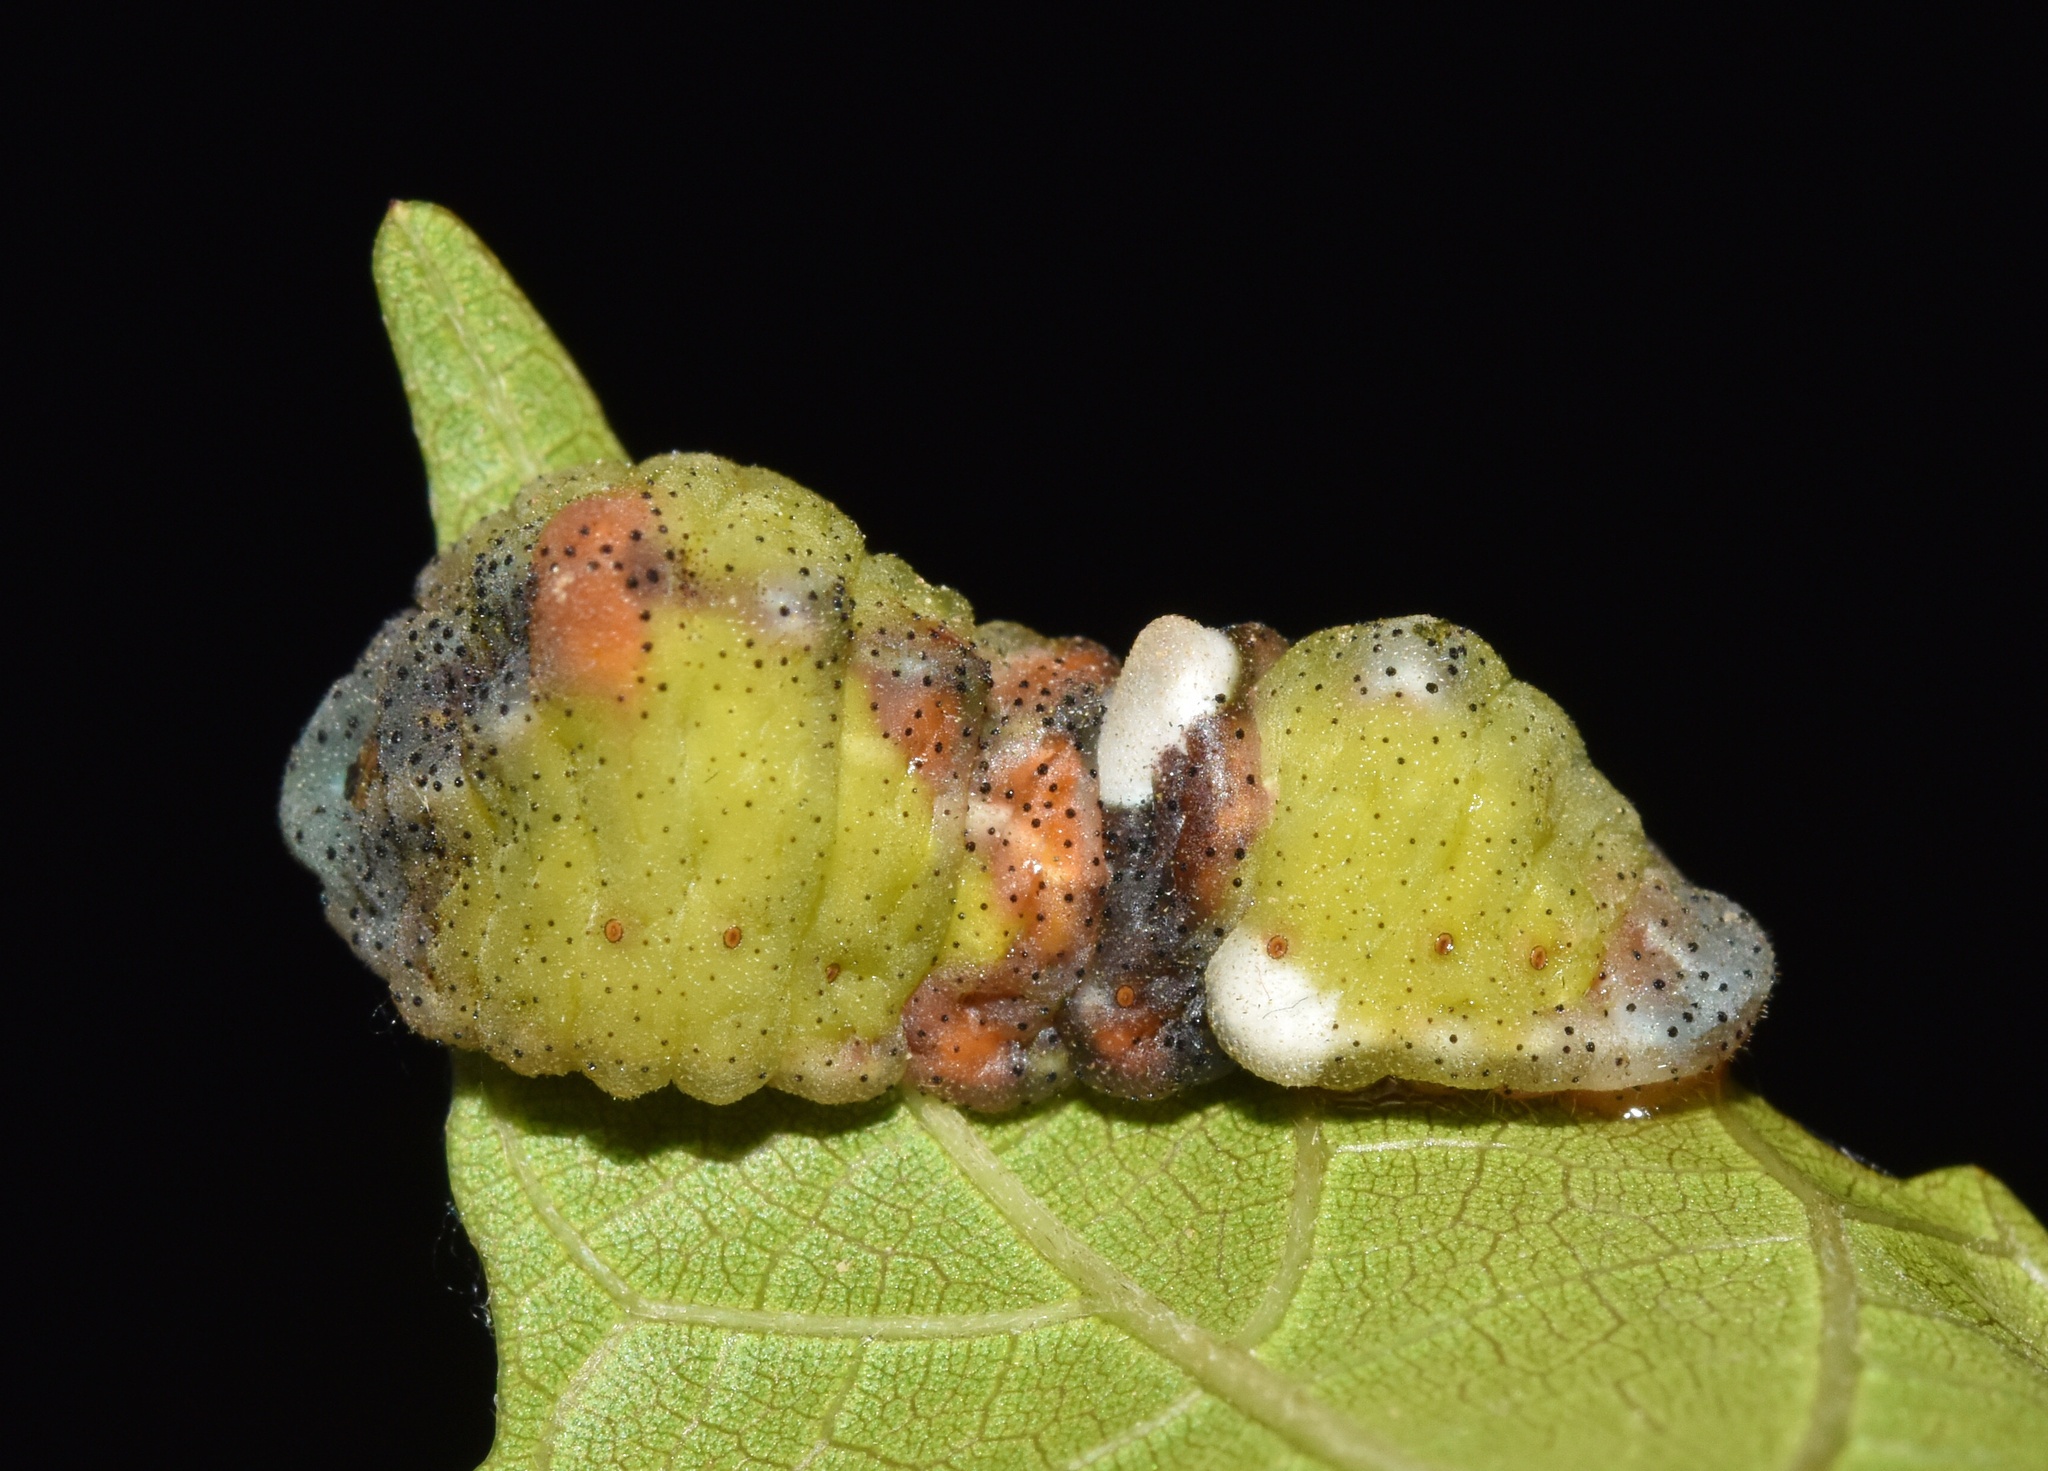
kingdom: Animalia
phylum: Arthropoda
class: Insecta
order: Lepidoptera
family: Lycaenidae
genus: Myrina
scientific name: Myrina silenus
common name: Amber fig-tree blue
